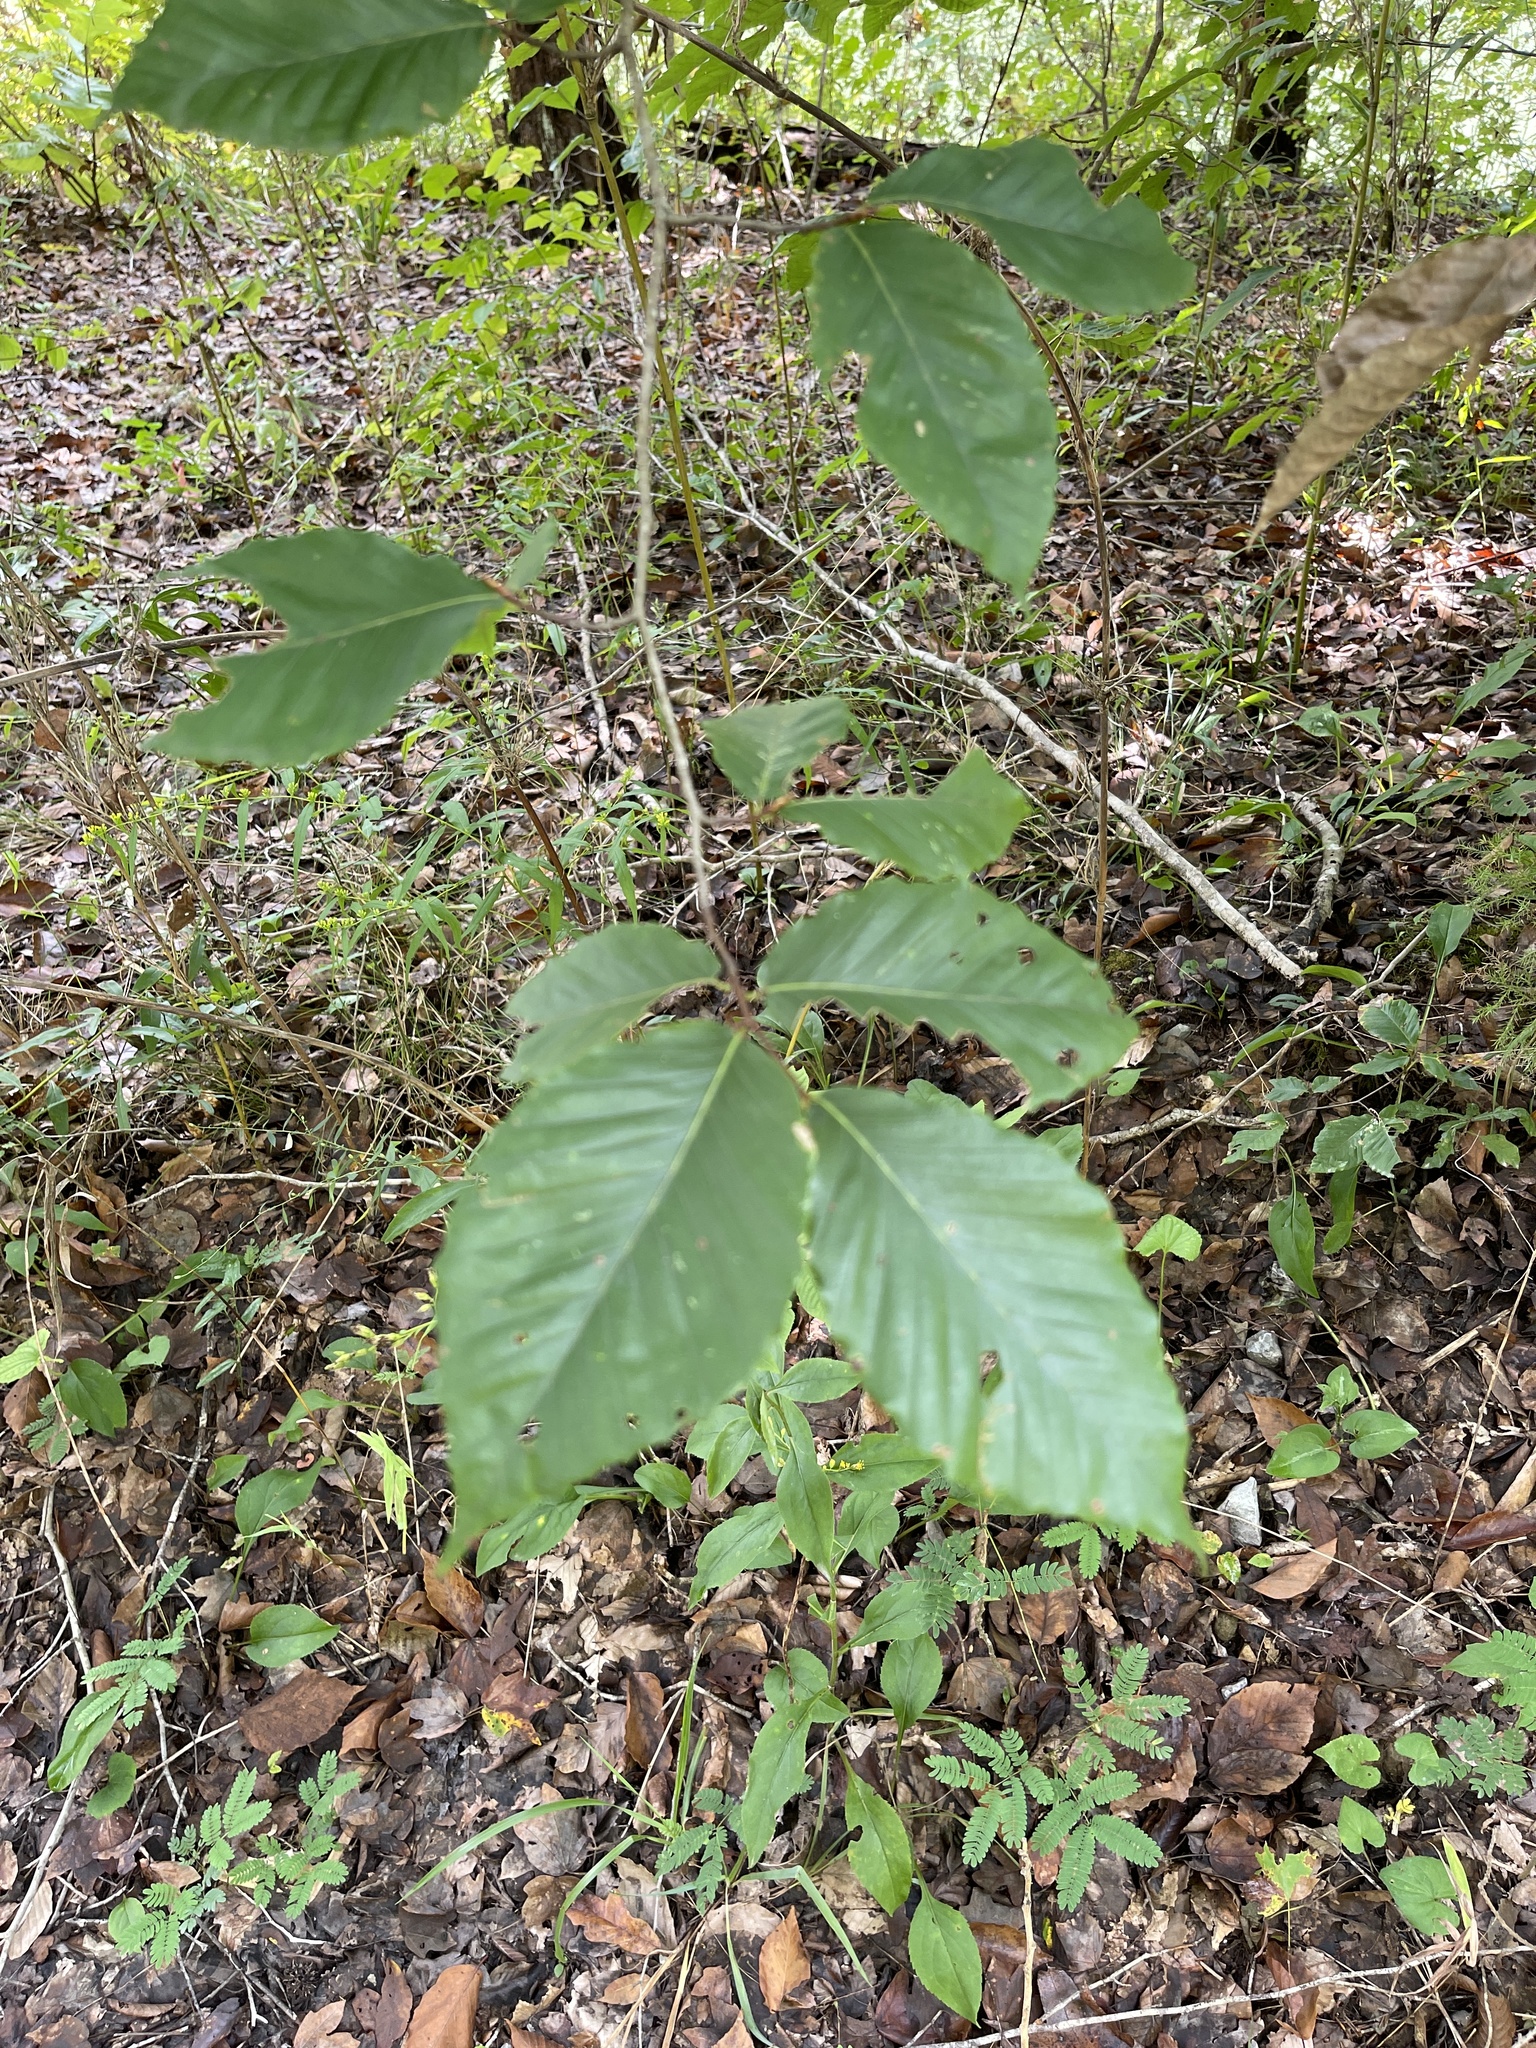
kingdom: Plantae
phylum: Tracheophyta
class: Magnoliopsida
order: Fagales
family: Fagaceae
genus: Fagus
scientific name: Fagus grandifolia
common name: American beech
